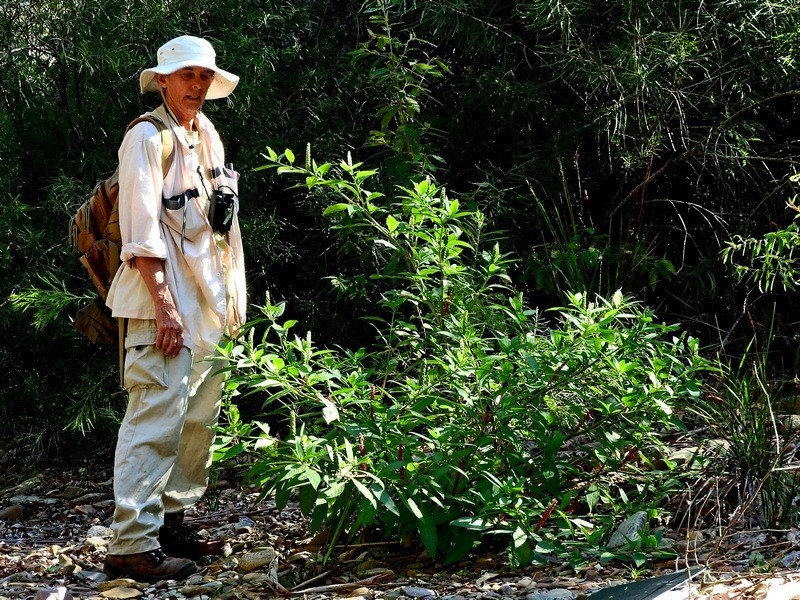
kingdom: Plantae
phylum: Tracheophyta
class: Magnoliopsida
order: Caryophyllales
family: Phytolaccaceae
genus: Phytolacca
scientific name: Phytolacca icosandra
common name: Button pokeweed
